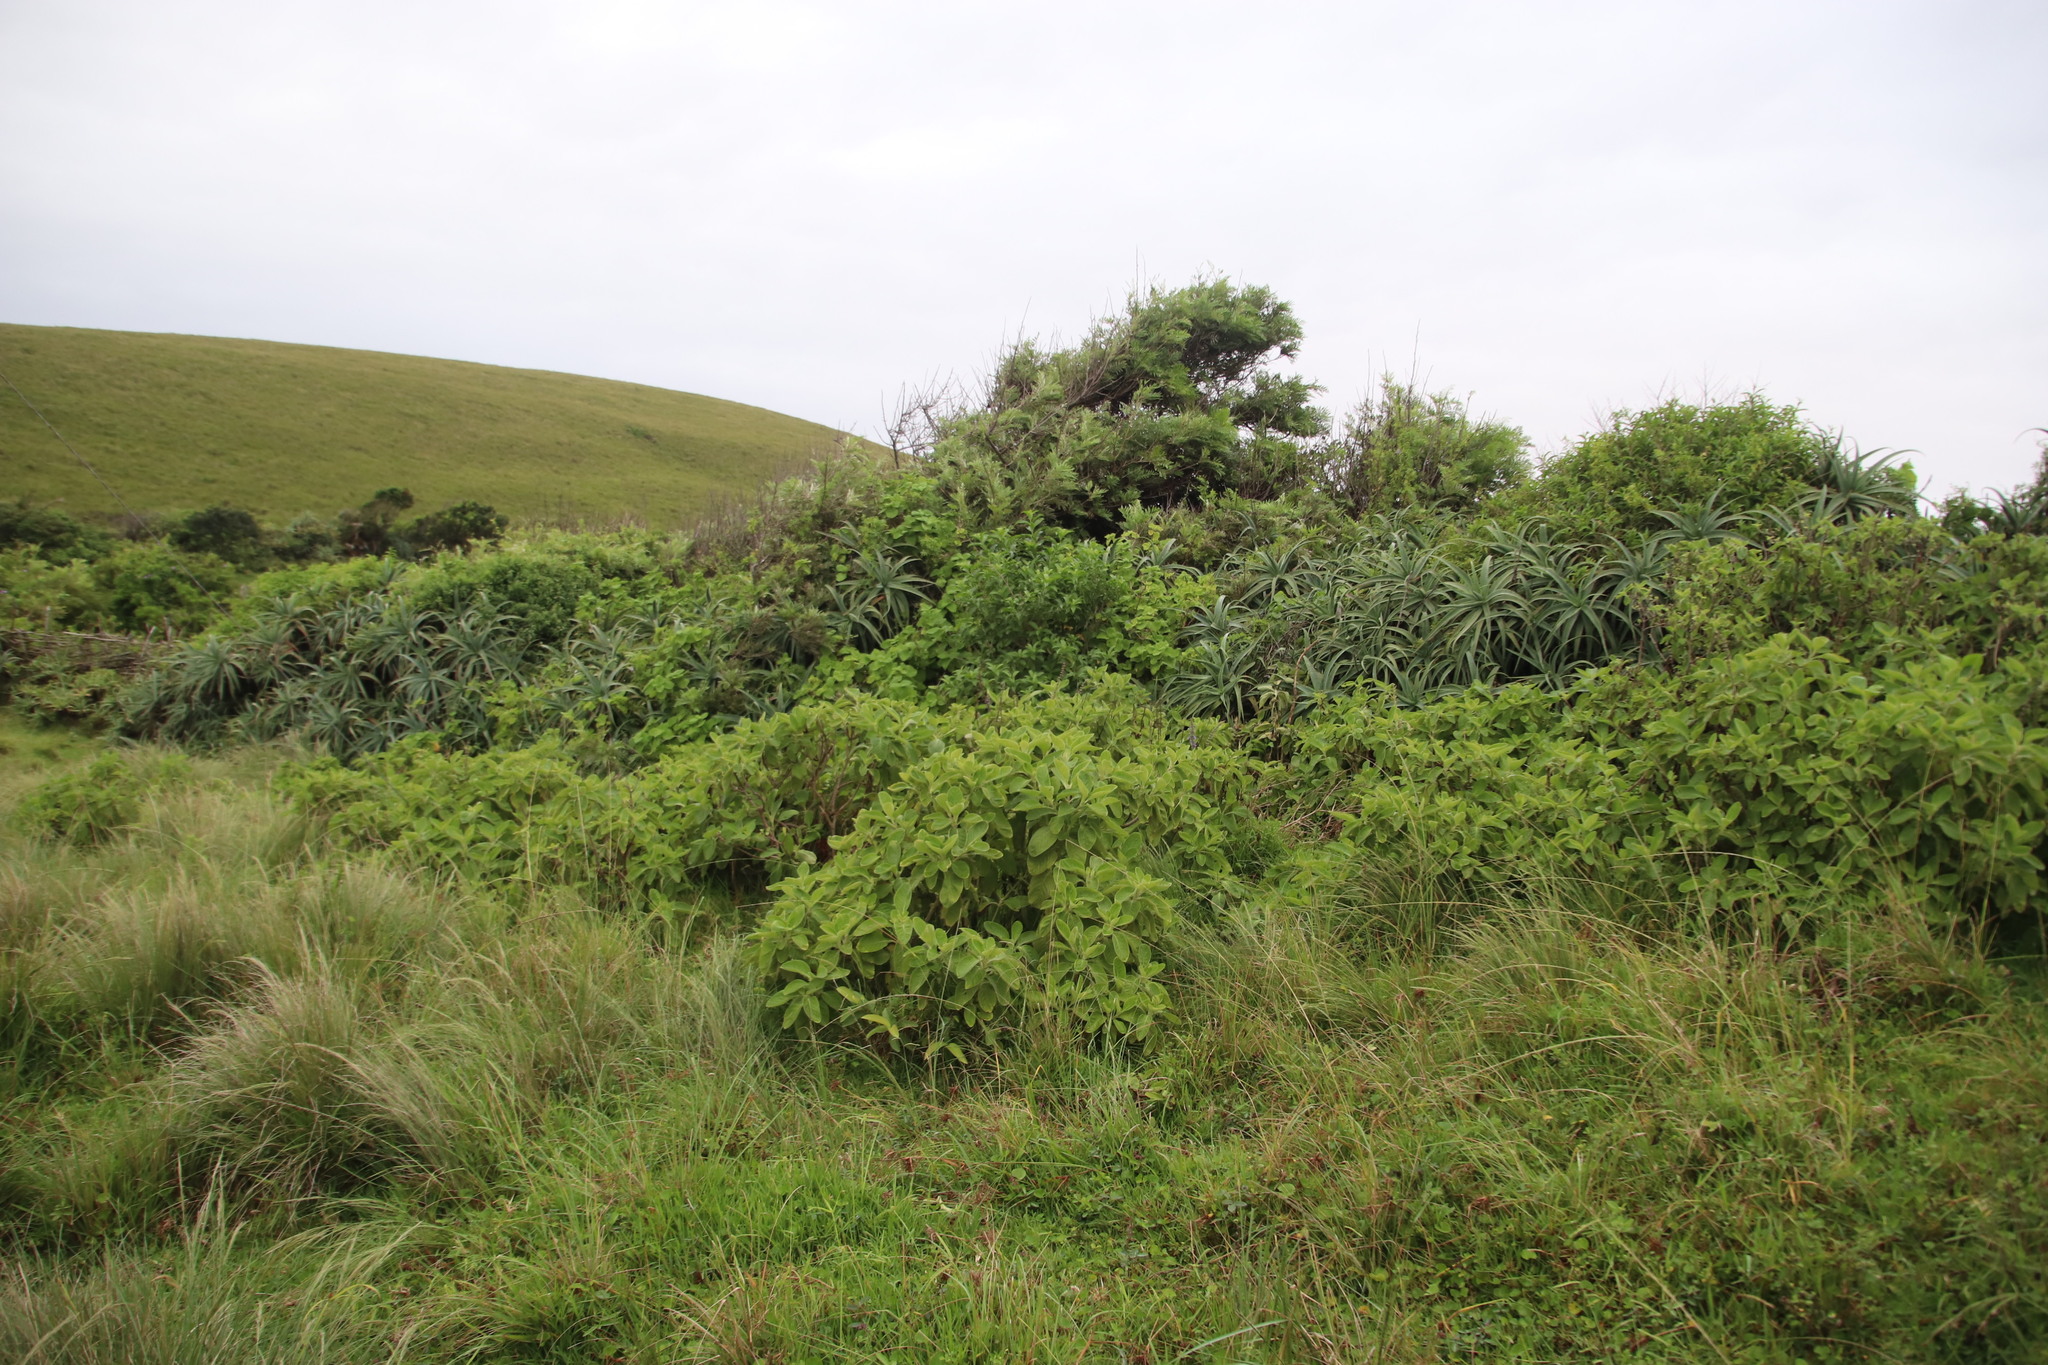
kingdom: Plantae
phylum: Tracheophyta
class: Magnoliopsida
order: Lamiales
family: Lamiaceae
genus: Coleus
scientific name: Coleus barbatus
